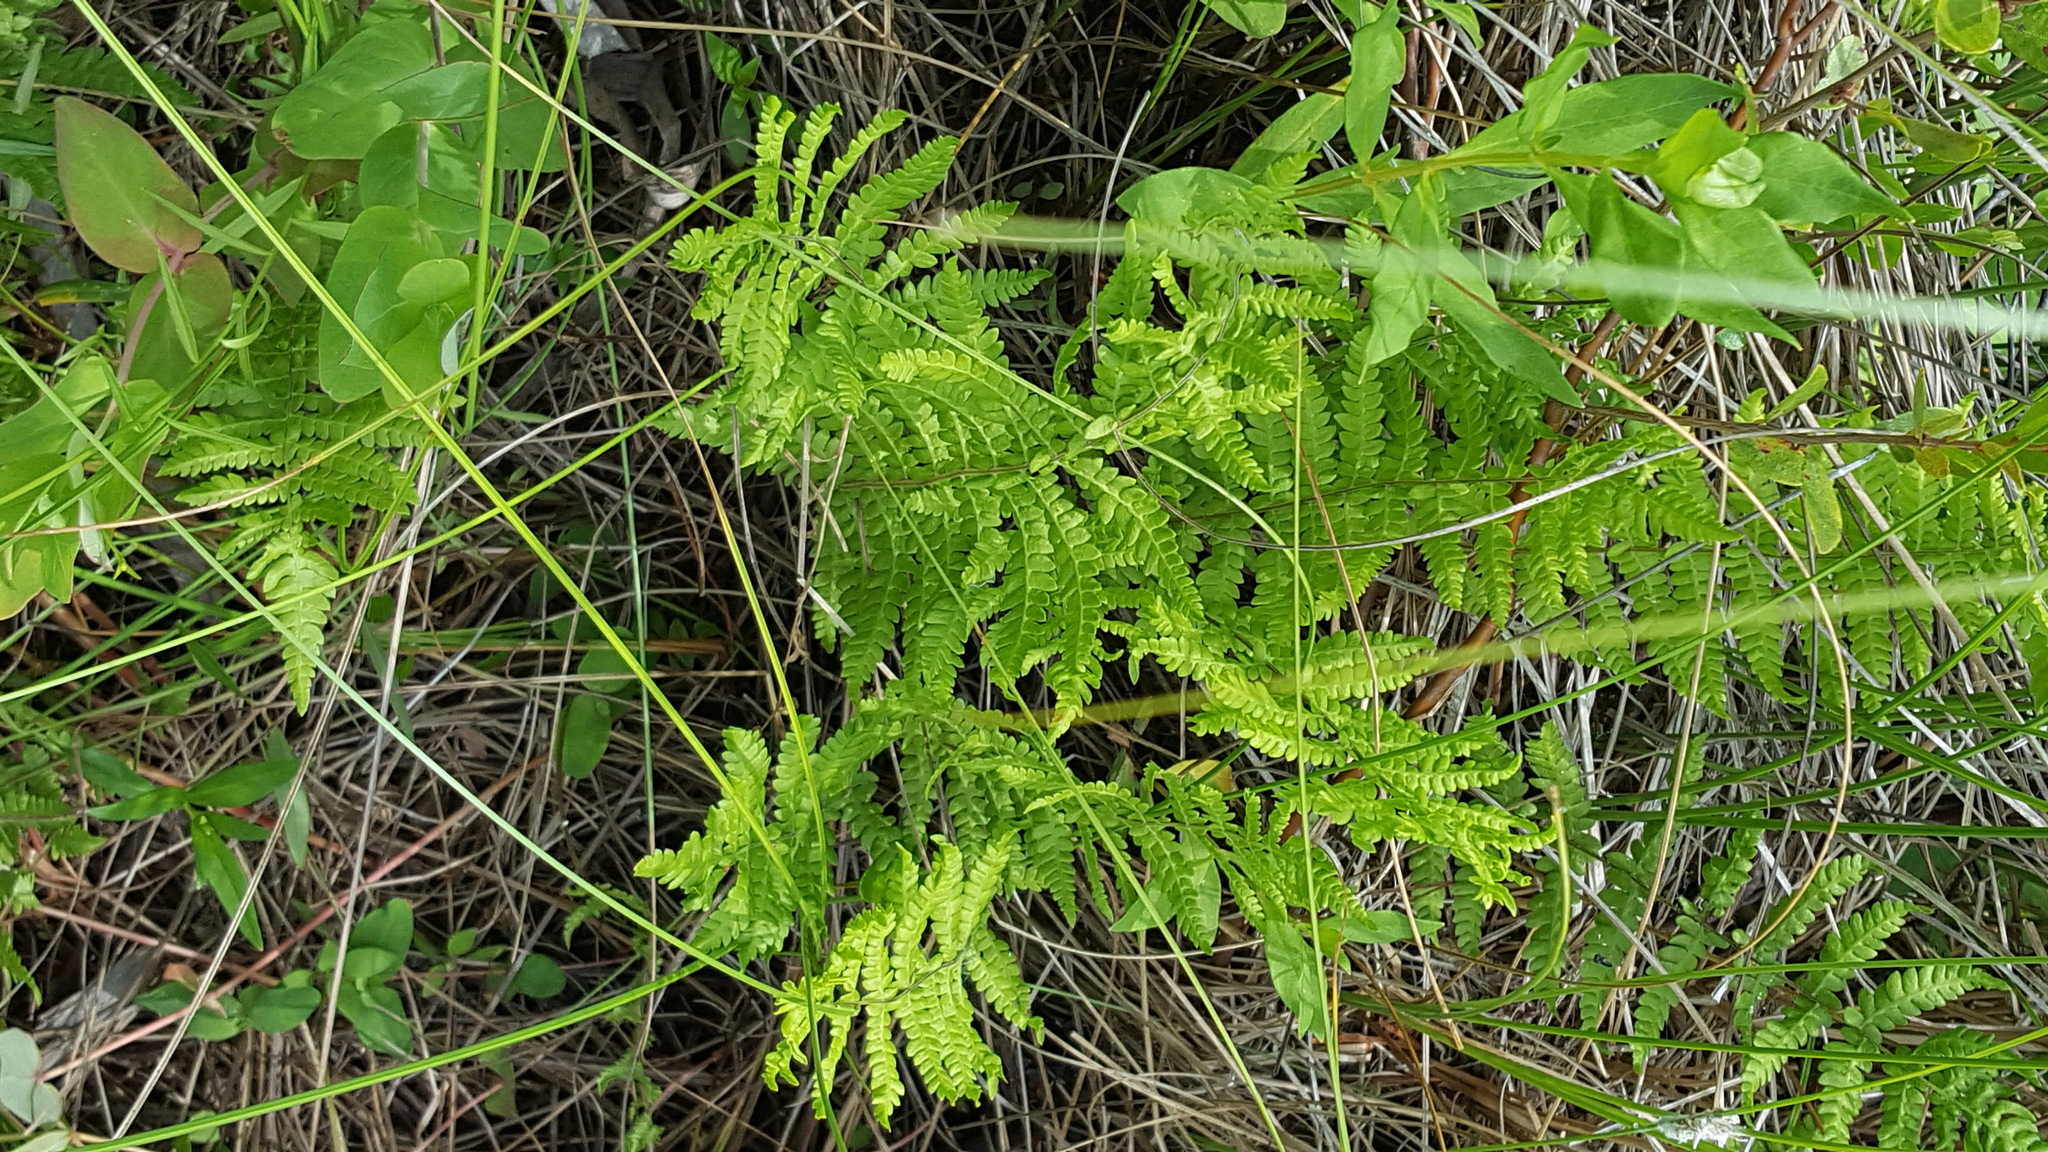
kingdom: Plantae
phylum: Tracheophyta
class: Polypodiopsida
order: Polypodiales
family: Thelypteridaceae
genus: Thelypteris
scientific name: Thelypteris palustris
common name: Marsh fern
